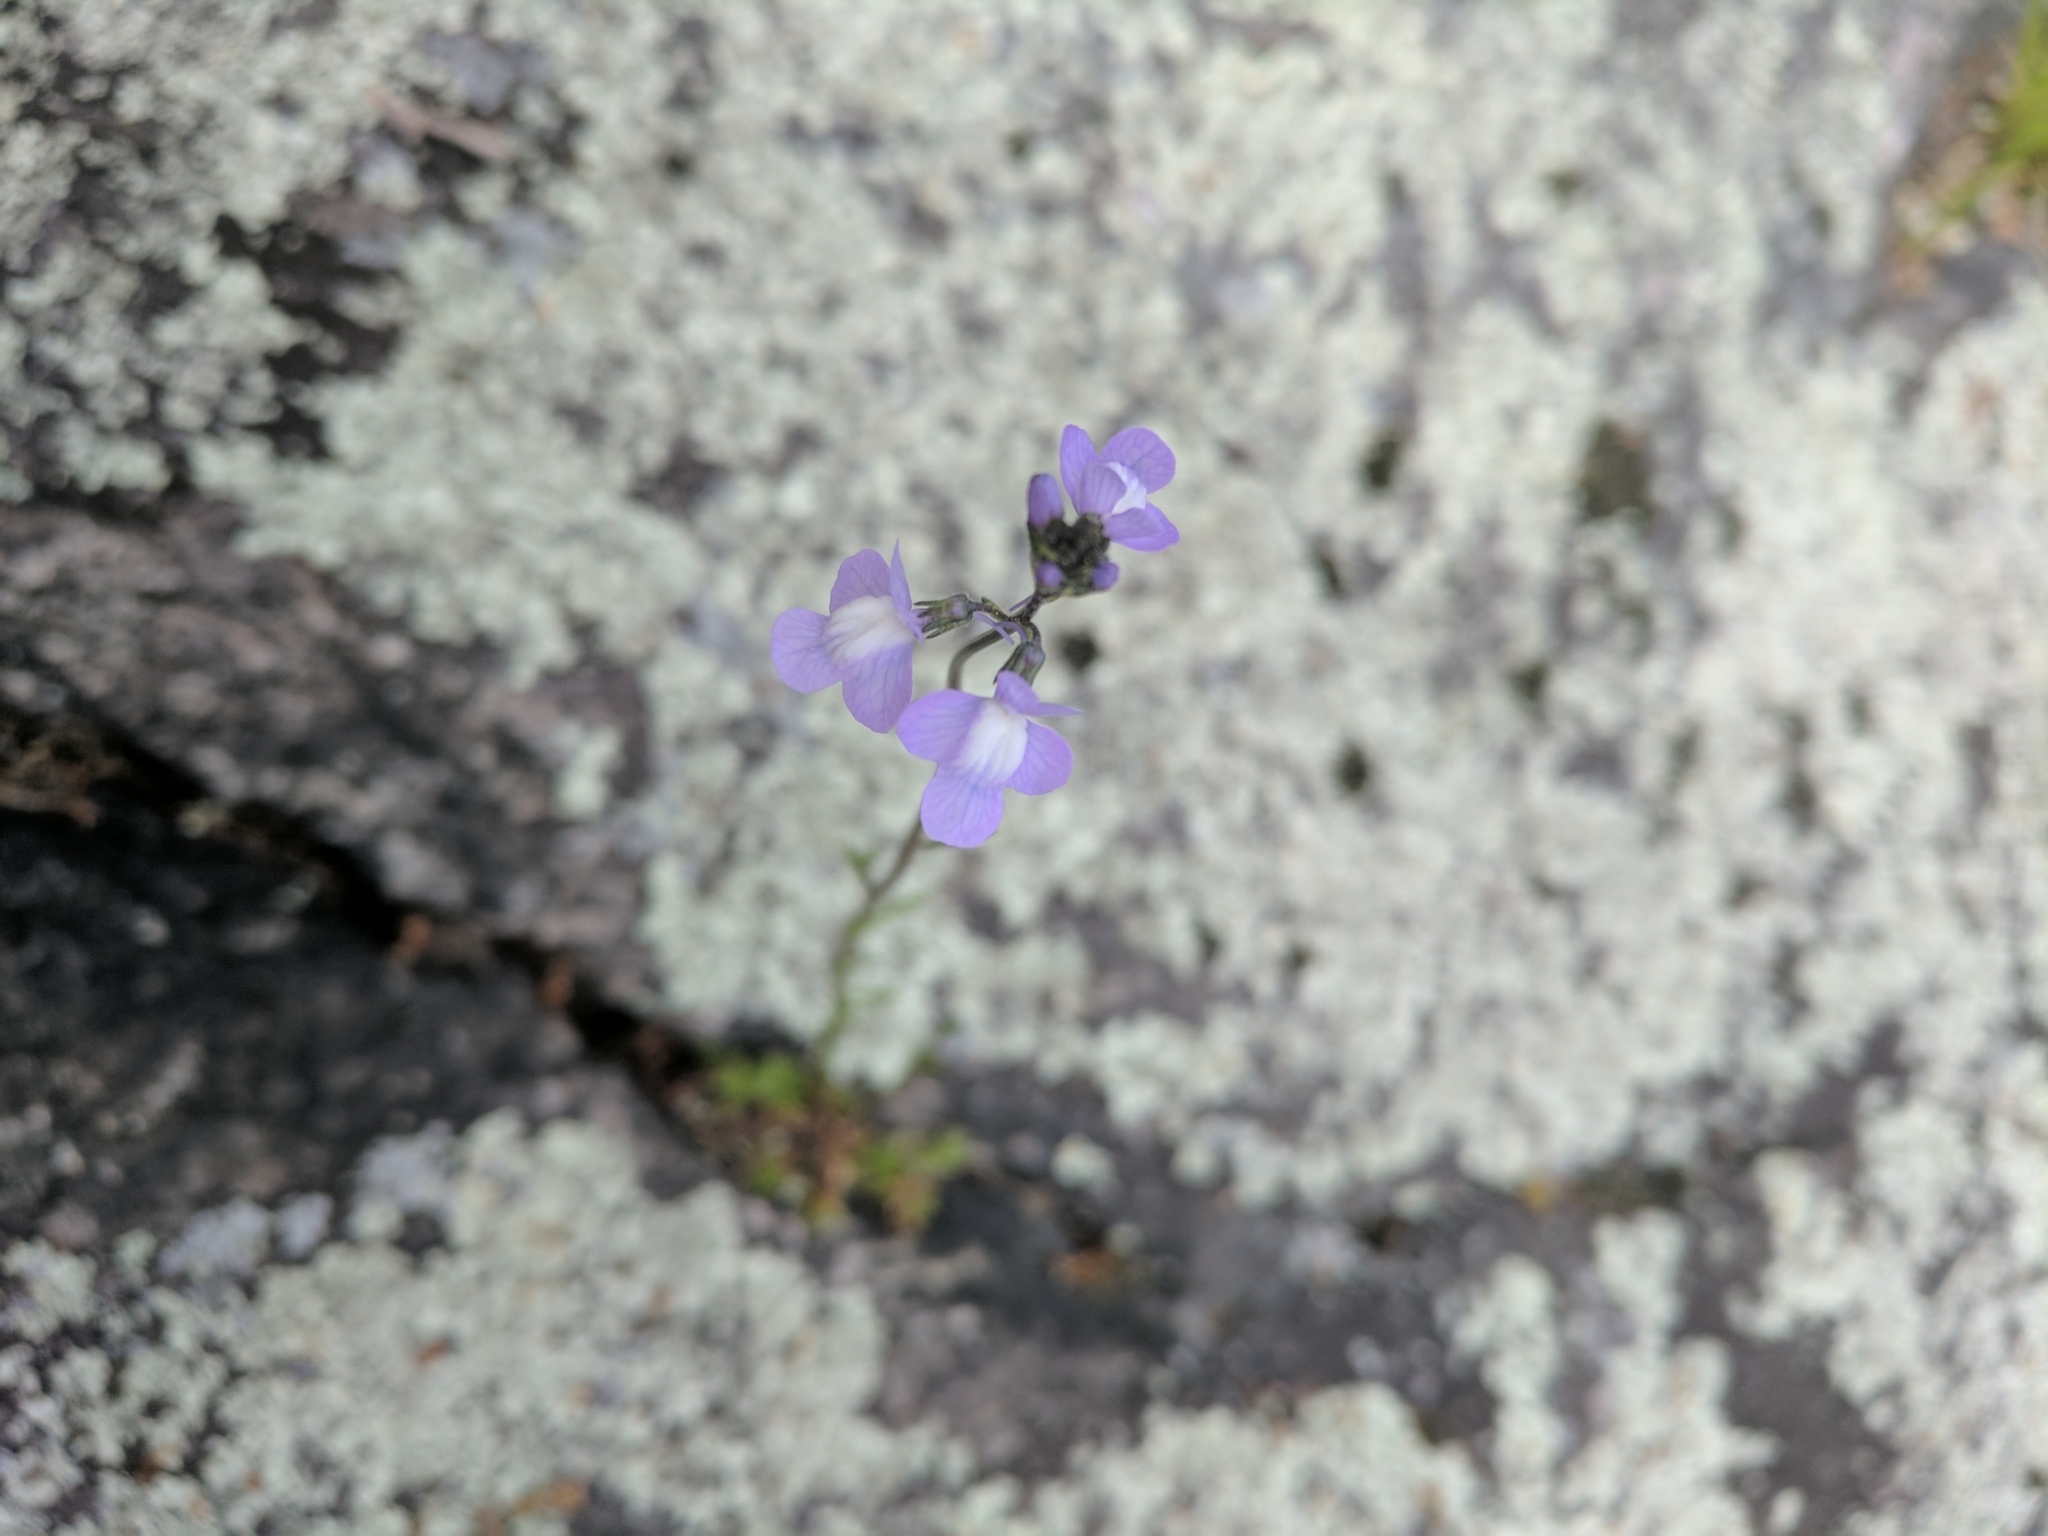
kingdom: Plantae
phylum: Tracheophyta
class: Magnoliopsida
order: Lamiales
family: Plantaginaceae
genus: Nuttallanthus
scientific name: Nuttallanthus canadensis
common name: Blue toadflax
